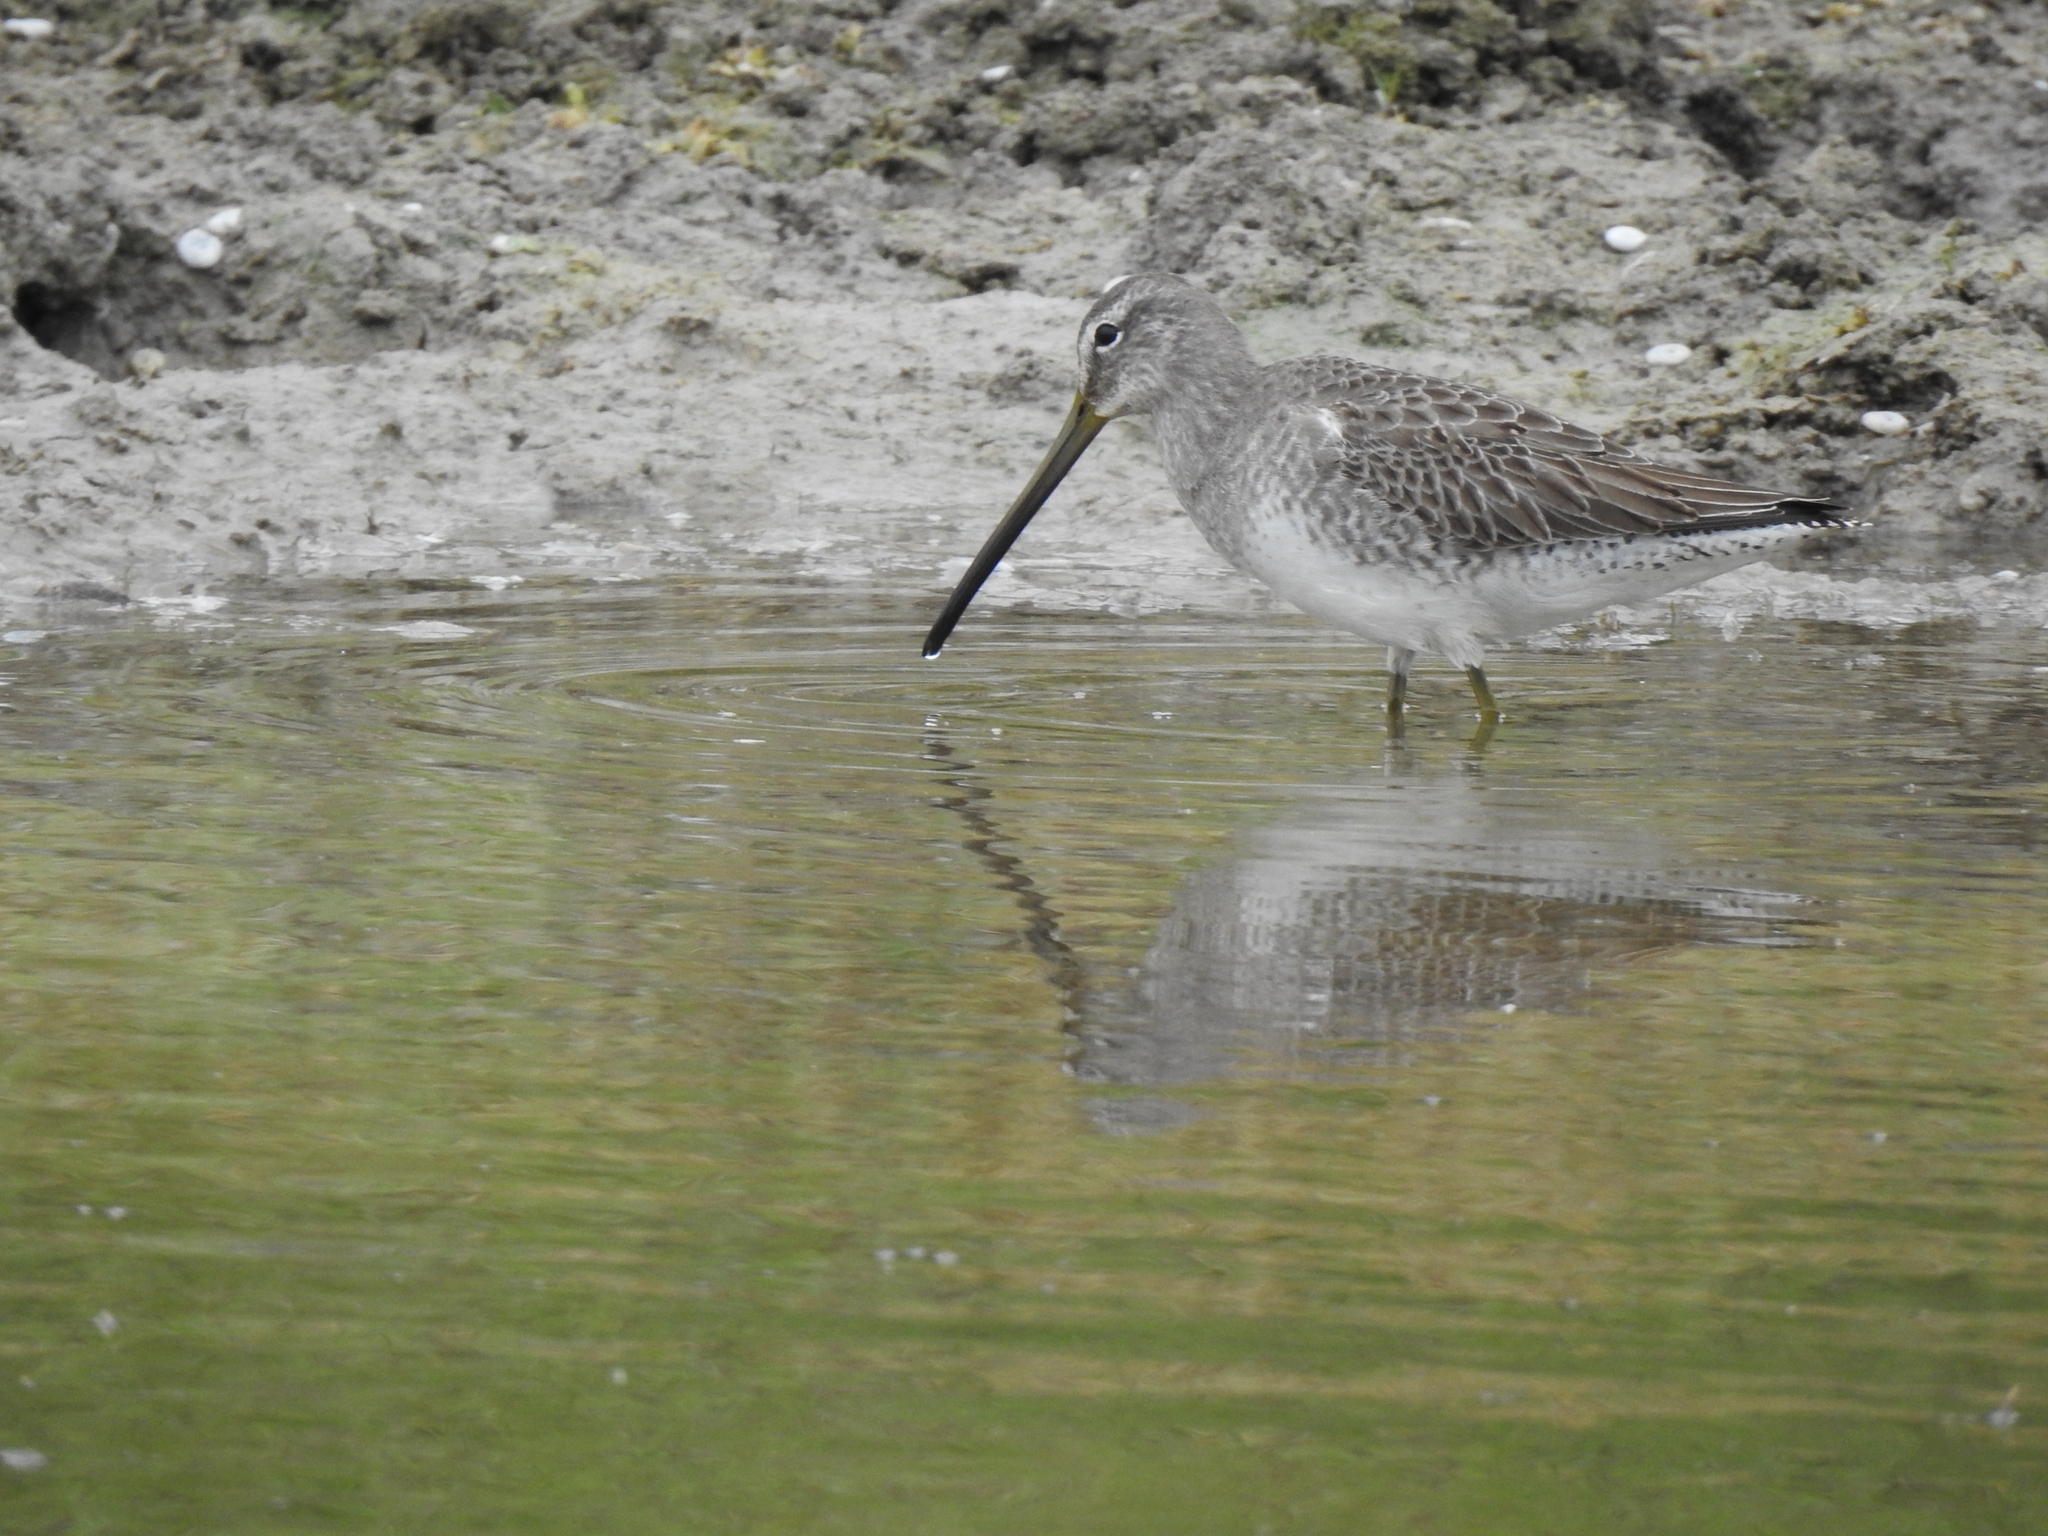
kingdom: Animalia
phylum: Chordata
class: Aves
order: Charadriiformes
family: Scolopacidae
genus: Limnodromus
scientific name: Limnodromus scolopaceus
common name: Long-billed dowitcher
